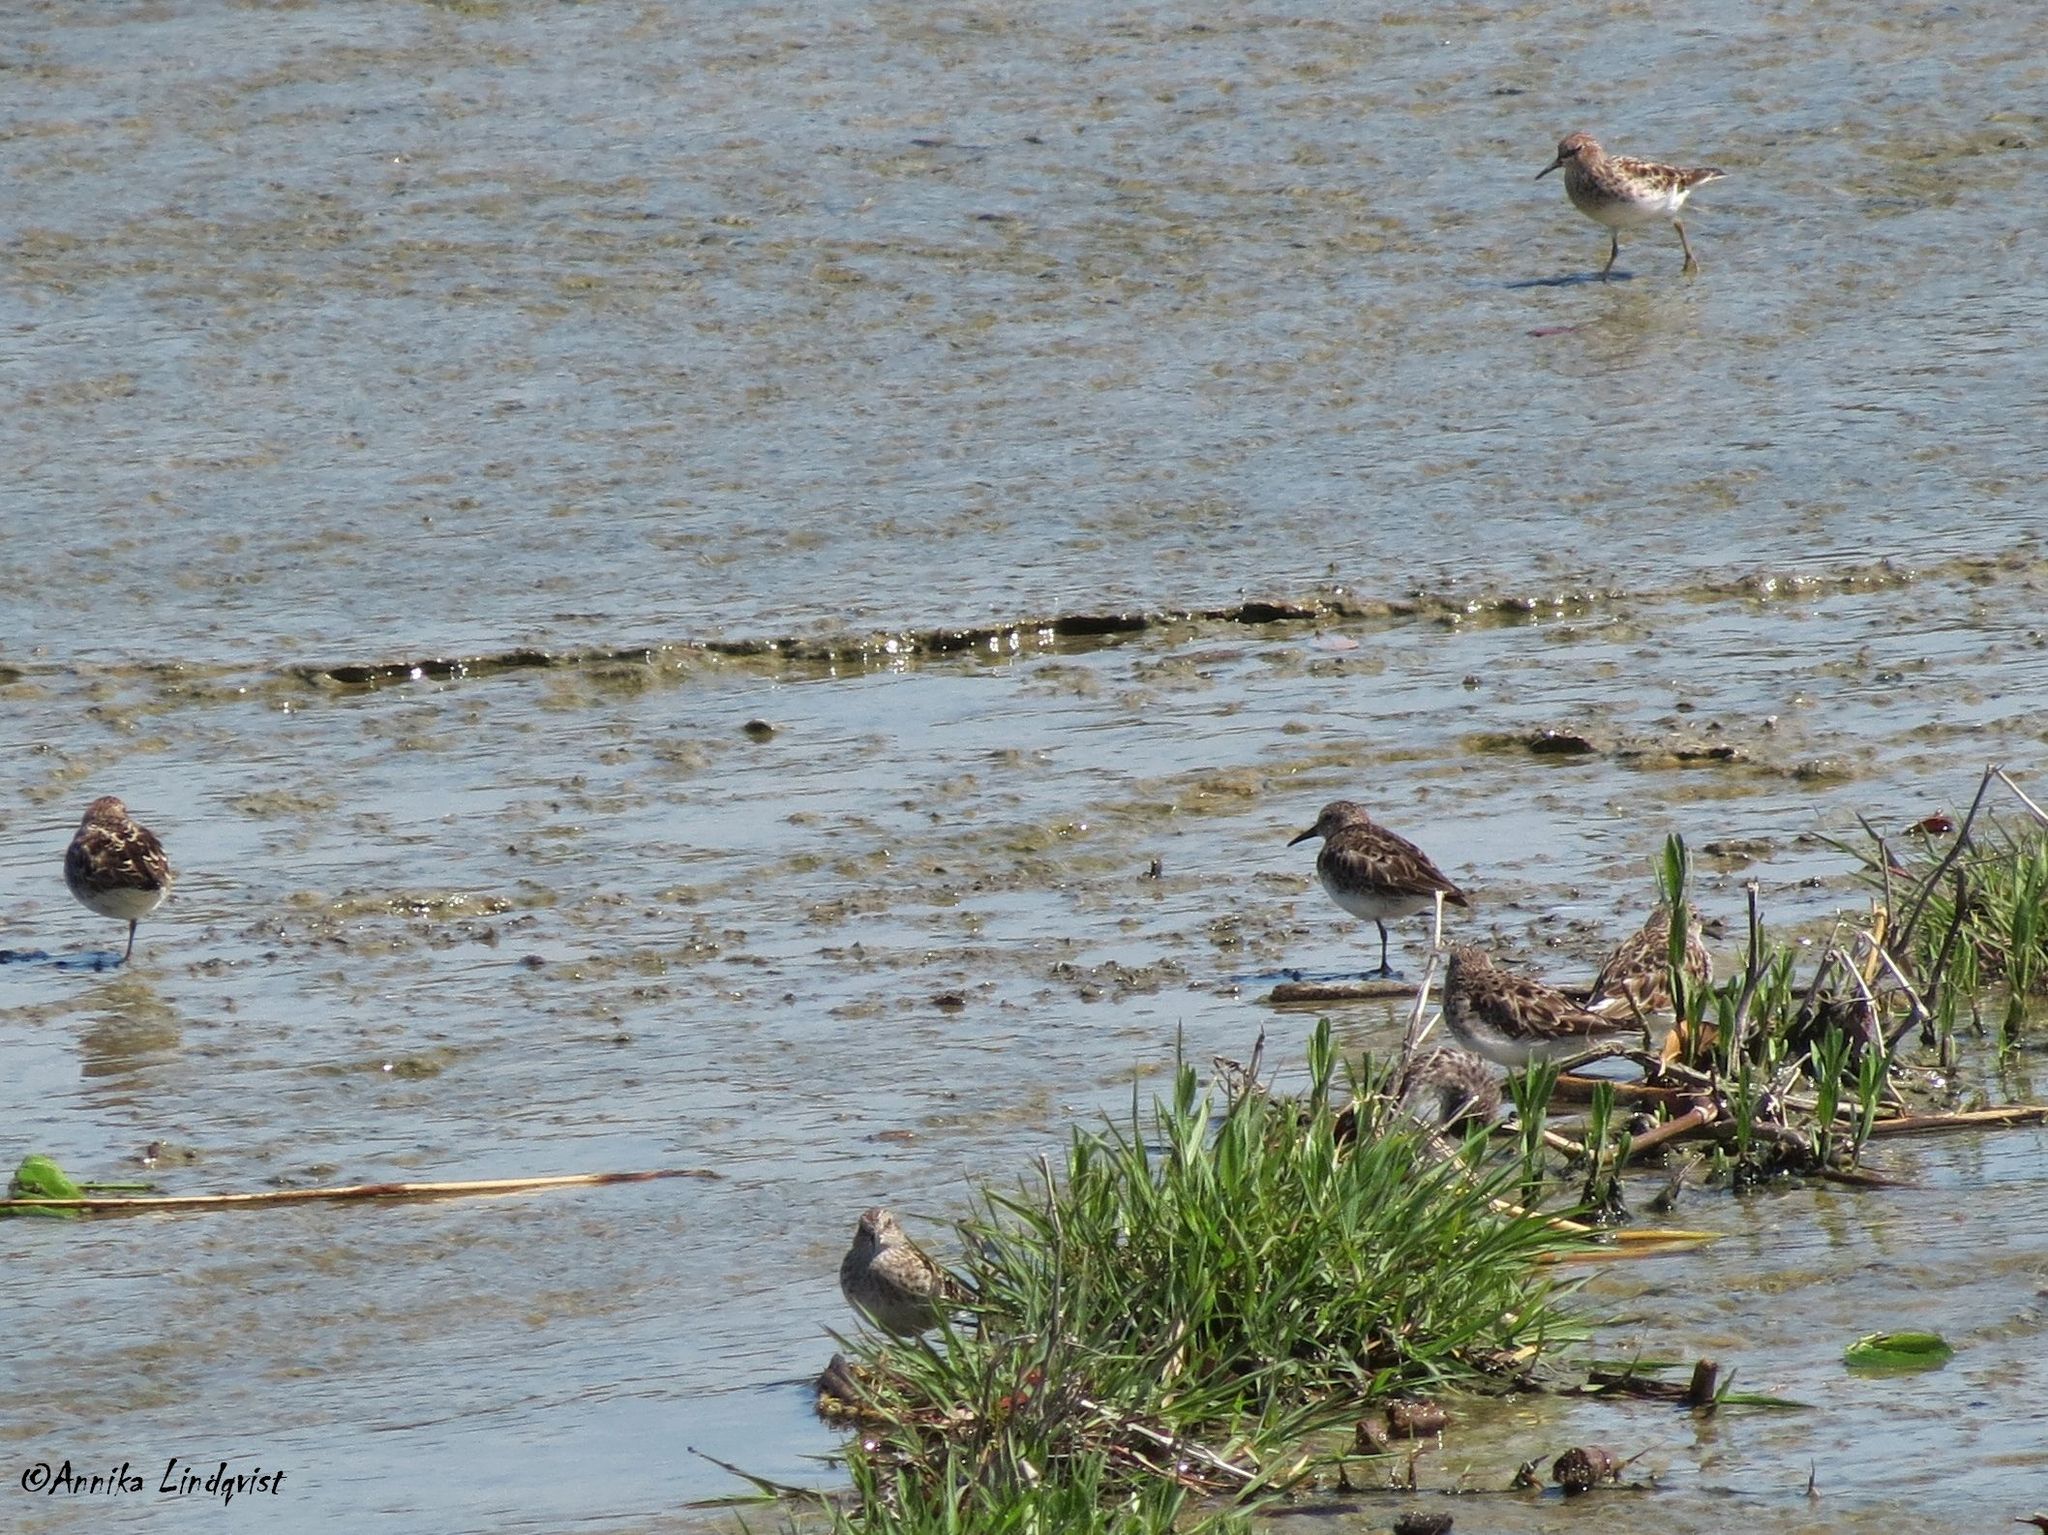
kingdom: Animalia
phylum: Chordata
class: Aves
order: Charadriiformes
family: Scolopacidae
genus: Calidris
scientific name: Calidris minutilla
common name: Least sandpiper
